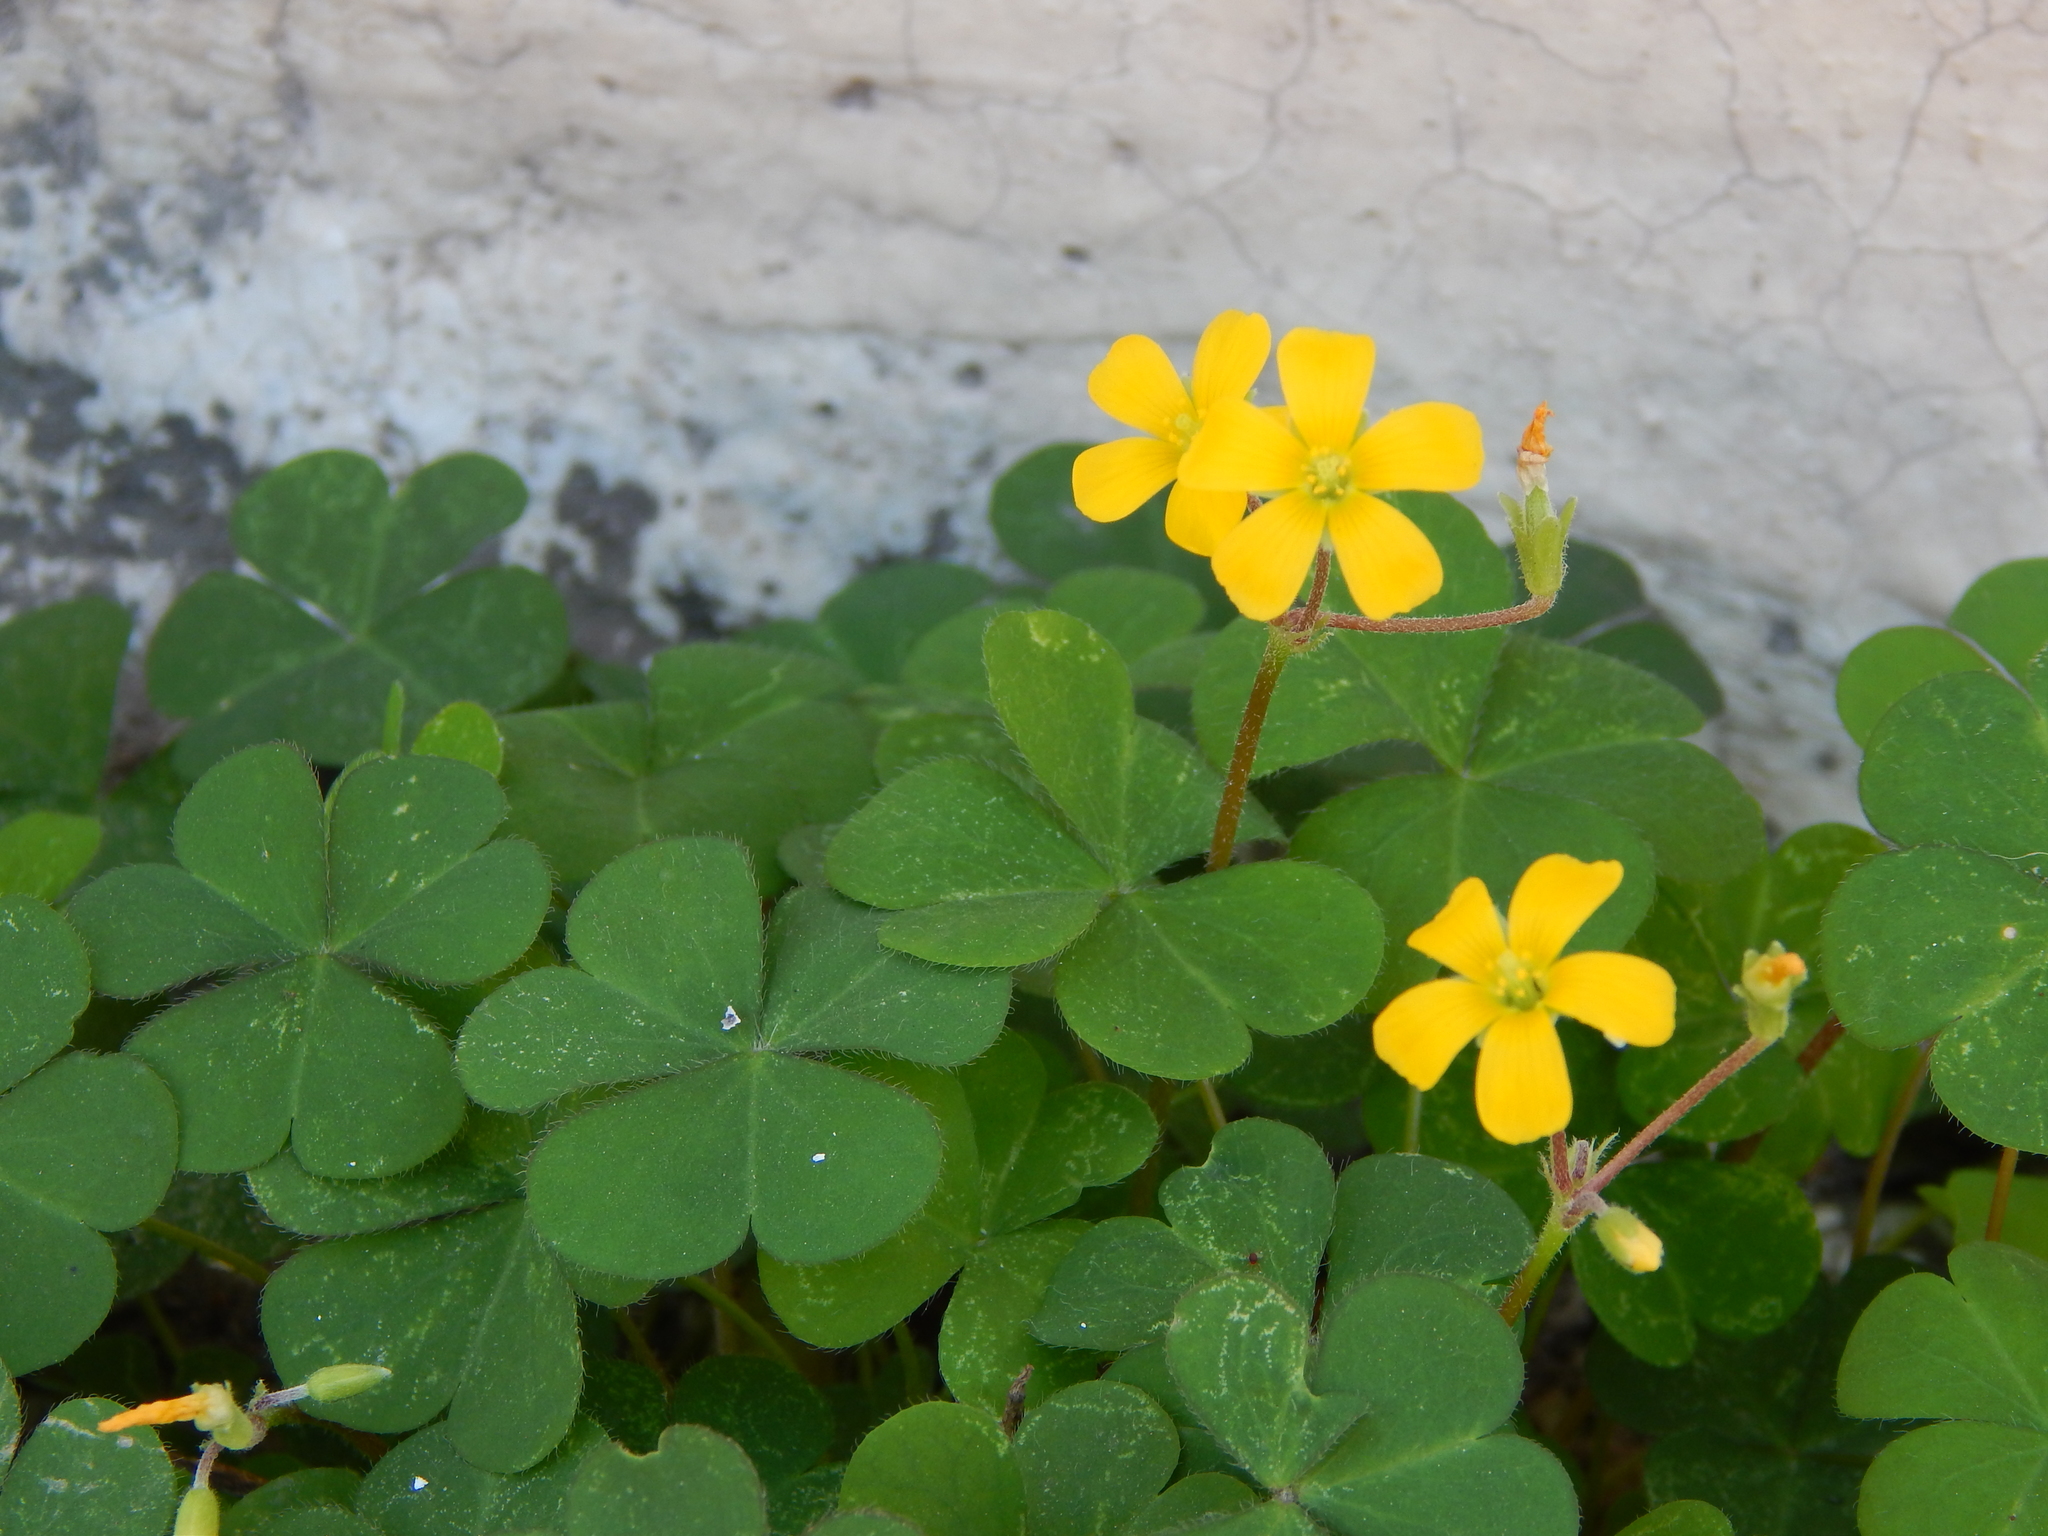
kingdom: Plantae
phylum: Tracheophyta
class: Magnoliopsida
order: Oxalidales
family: Oxalidaceae
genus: Oxalis
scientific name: Oxalis corniculata
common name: Procumbent yellow-sorrel
